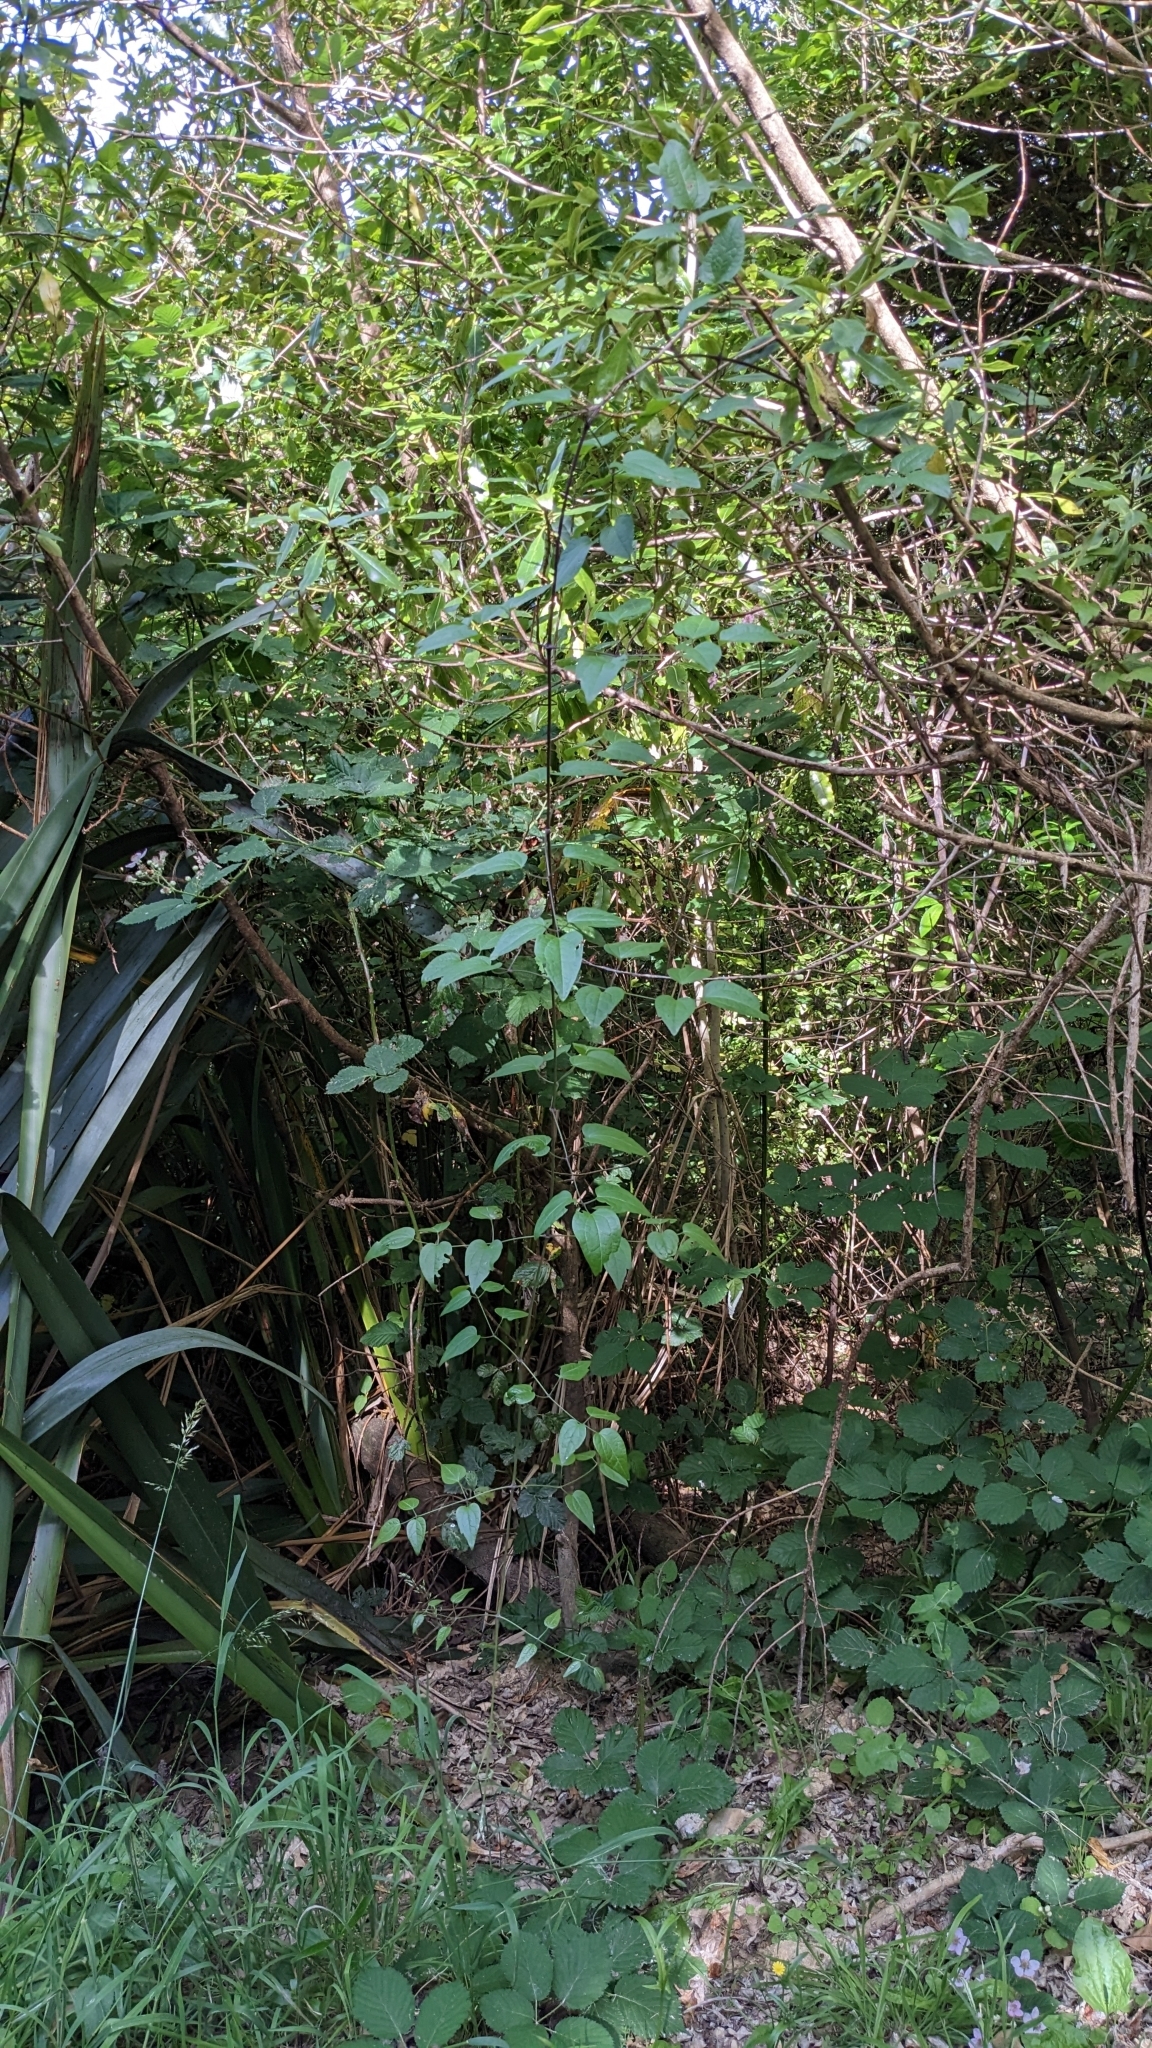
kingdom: Plantae
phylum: Tracheophyta
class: Magnoliopsida
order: Ranunculales
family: Ranunculaceae
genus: Clematis
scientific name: Clematis vitalba
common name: Evergreen clematis
